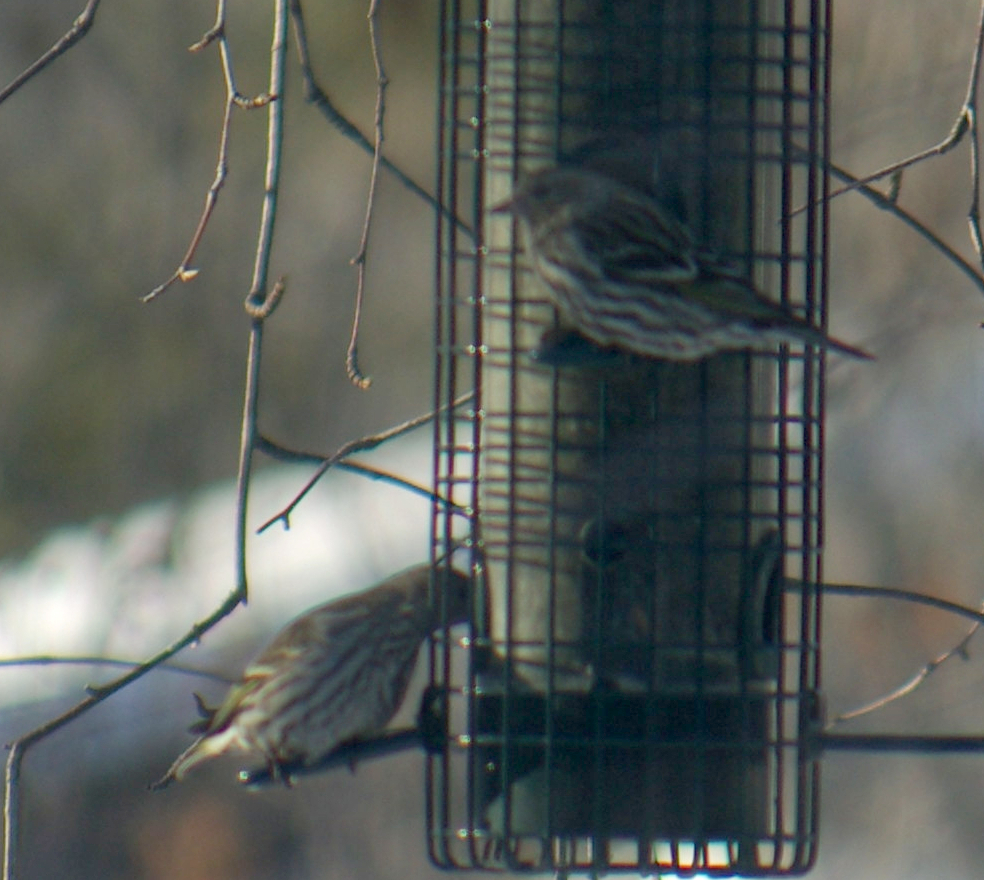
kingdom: Animalia
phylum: Chordata
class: Aves
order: Passeriformes
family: Fringillidae
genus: Spinus
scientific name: Spinus pinus
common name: Pine siskin
